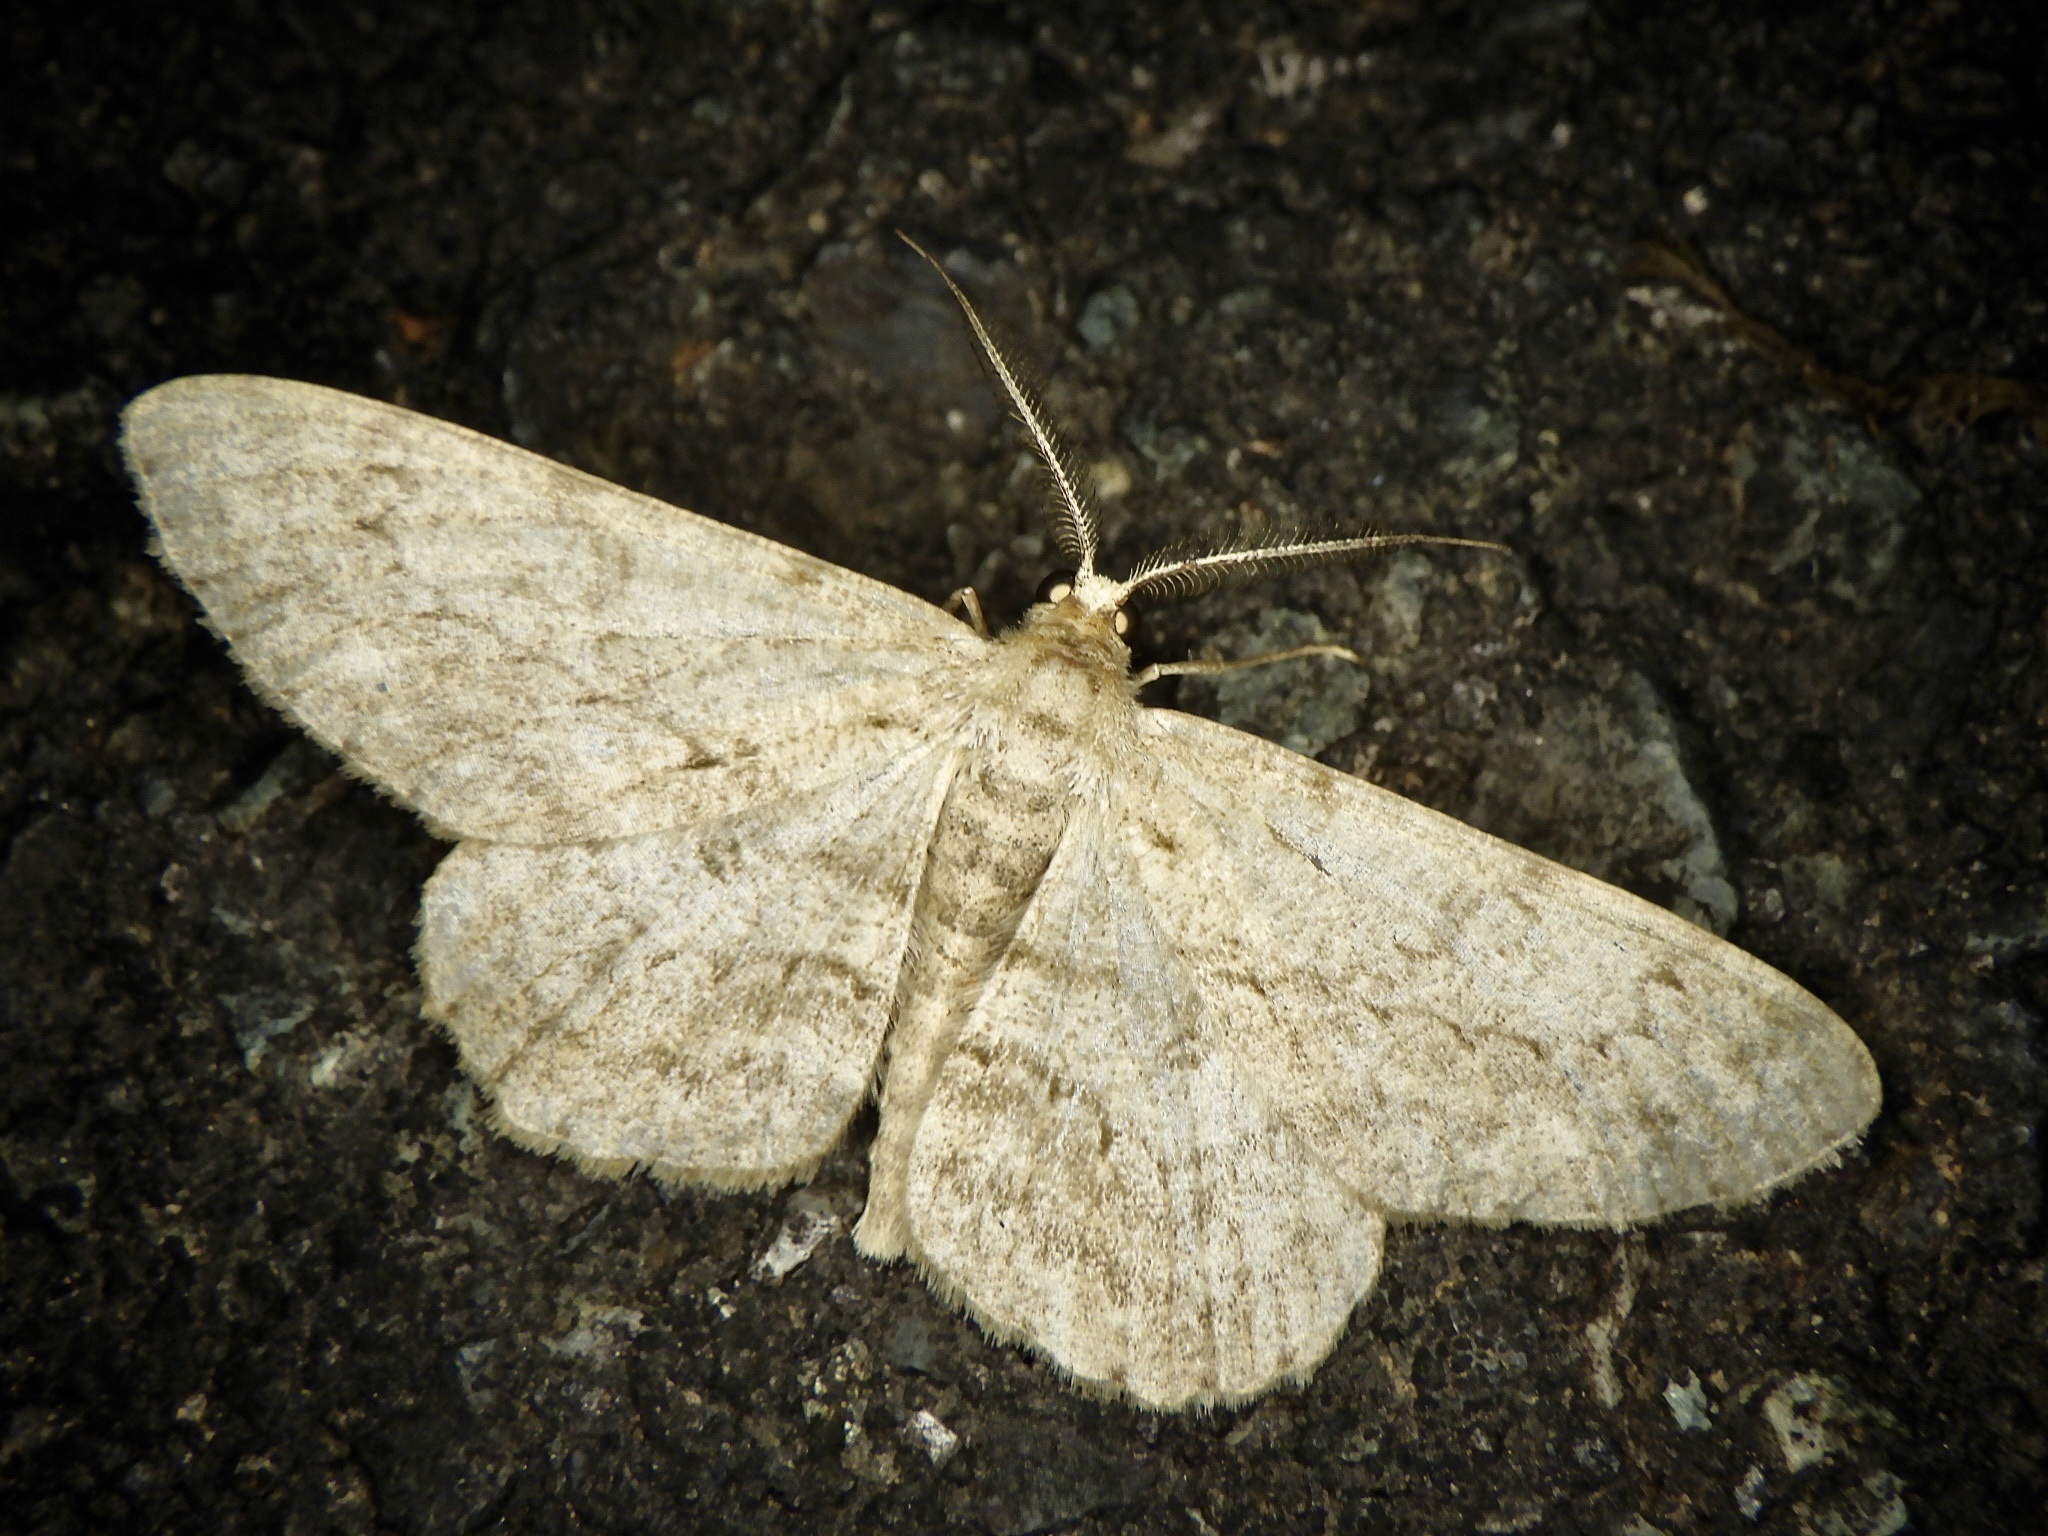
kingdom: Animalia
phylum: Arthropoda
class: Insecta
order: Lepidoptera
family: Geometridae
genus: Hypomecis
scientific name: Hypomecis punctinalis
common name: Pale oak beauty
